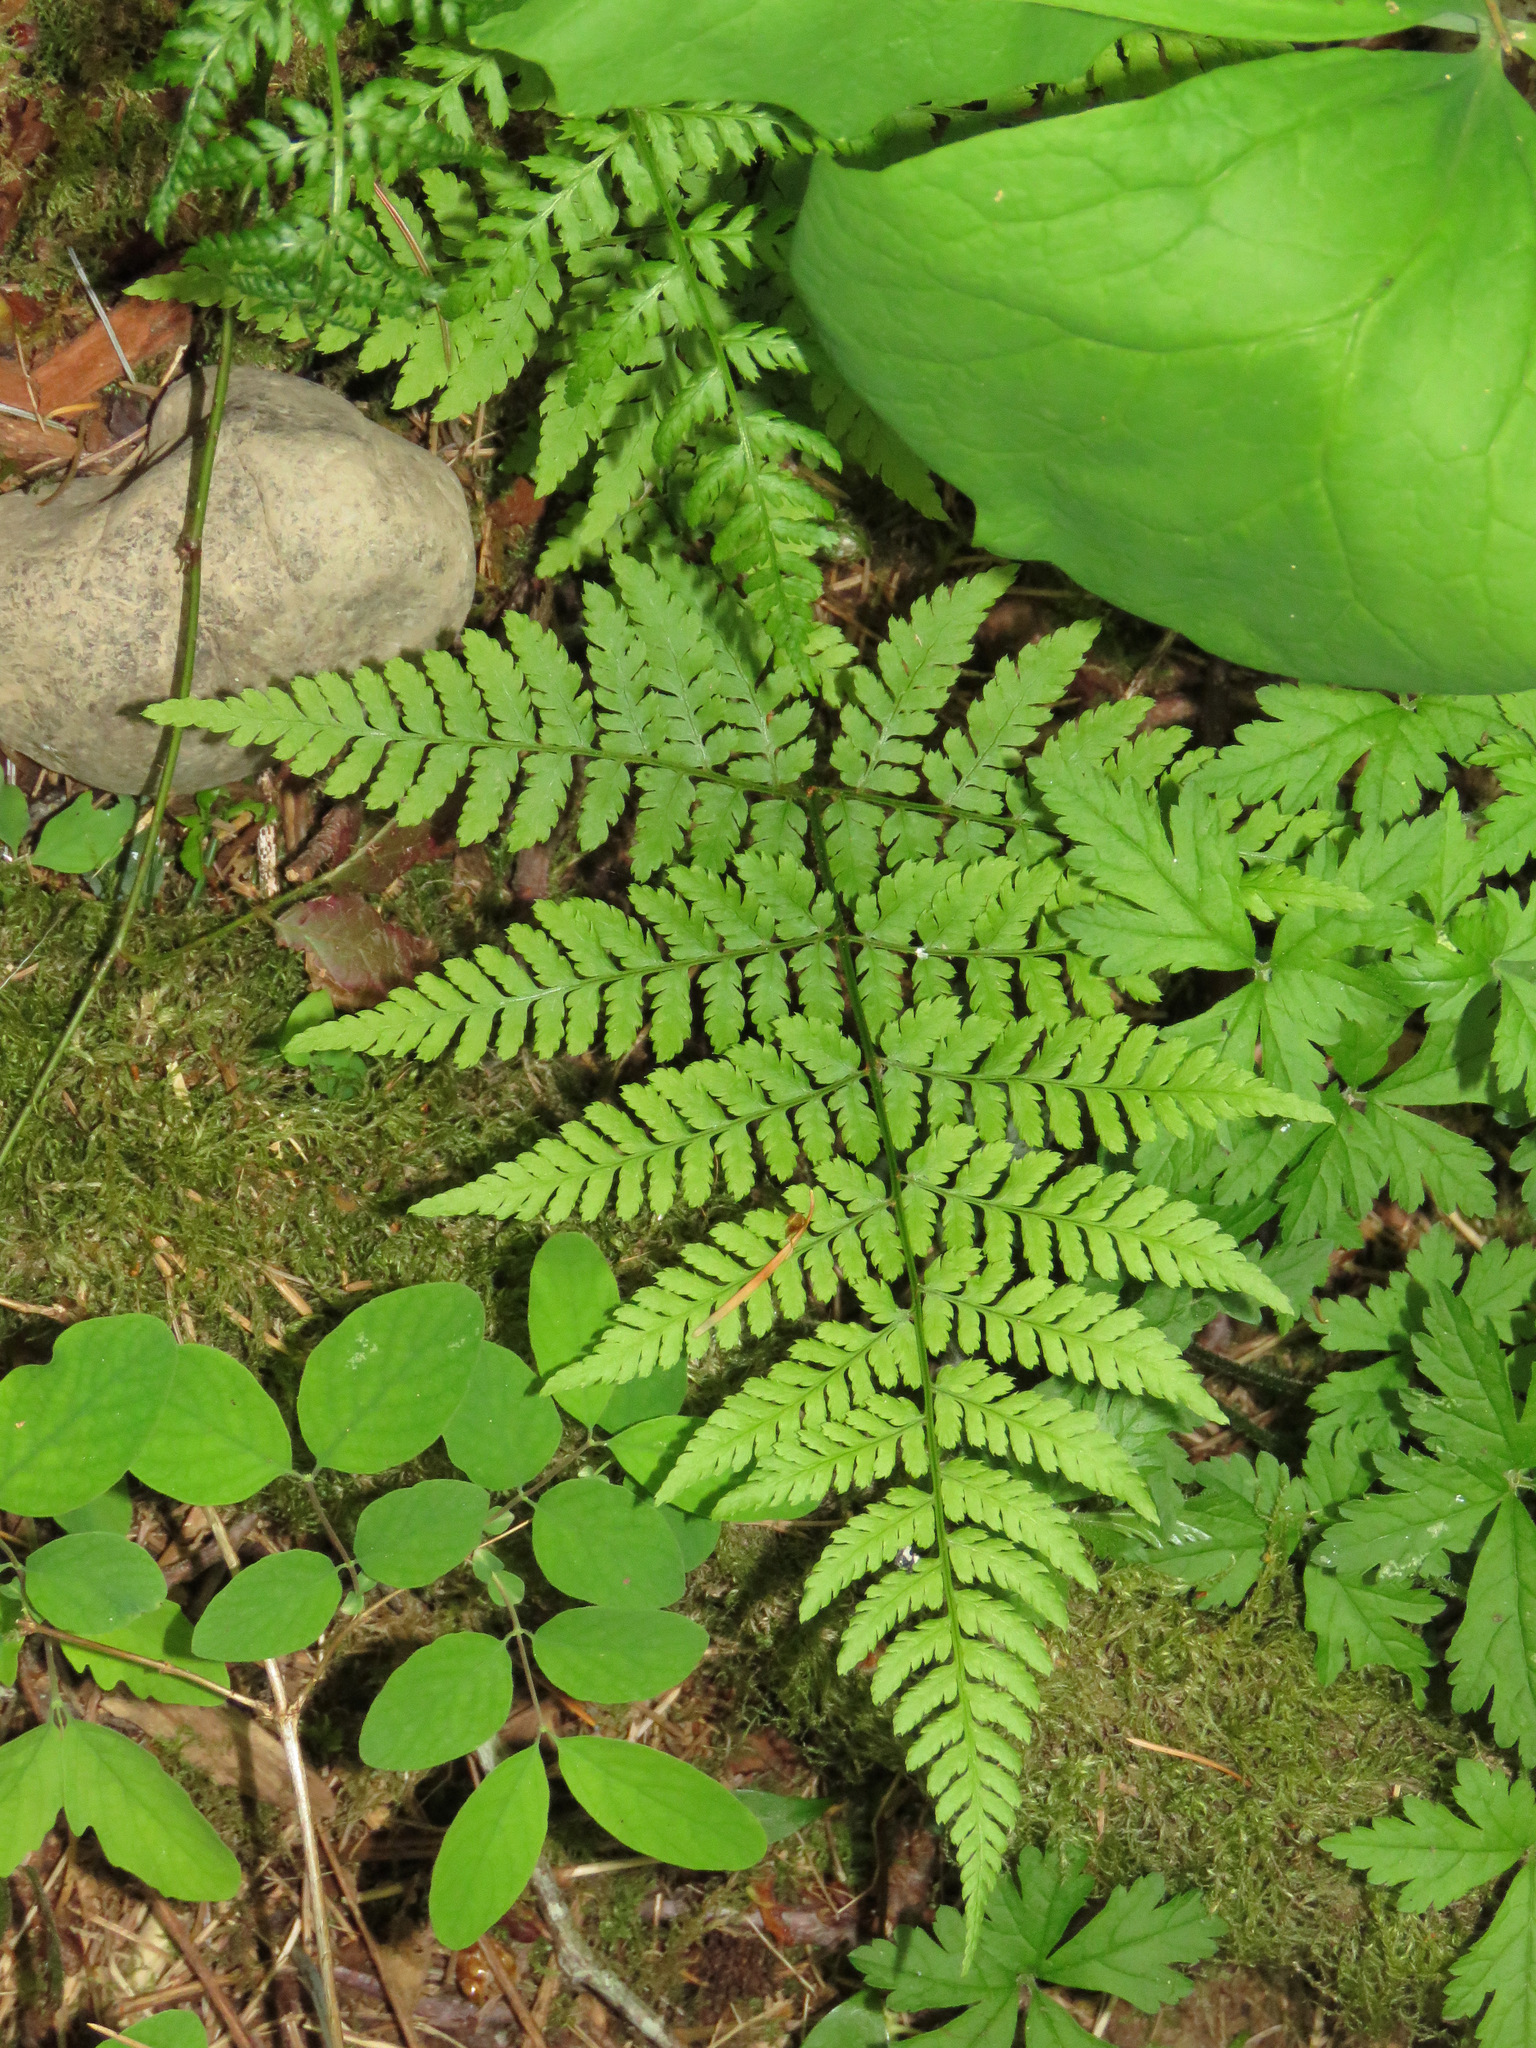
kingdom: Plantae
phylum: Tracheophyta
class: Polypodiopsida
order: Polypodiales
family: Dryopteridaceae
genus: Dryopteris
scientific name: Dryopteris expansa
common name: Northern buckler fern
